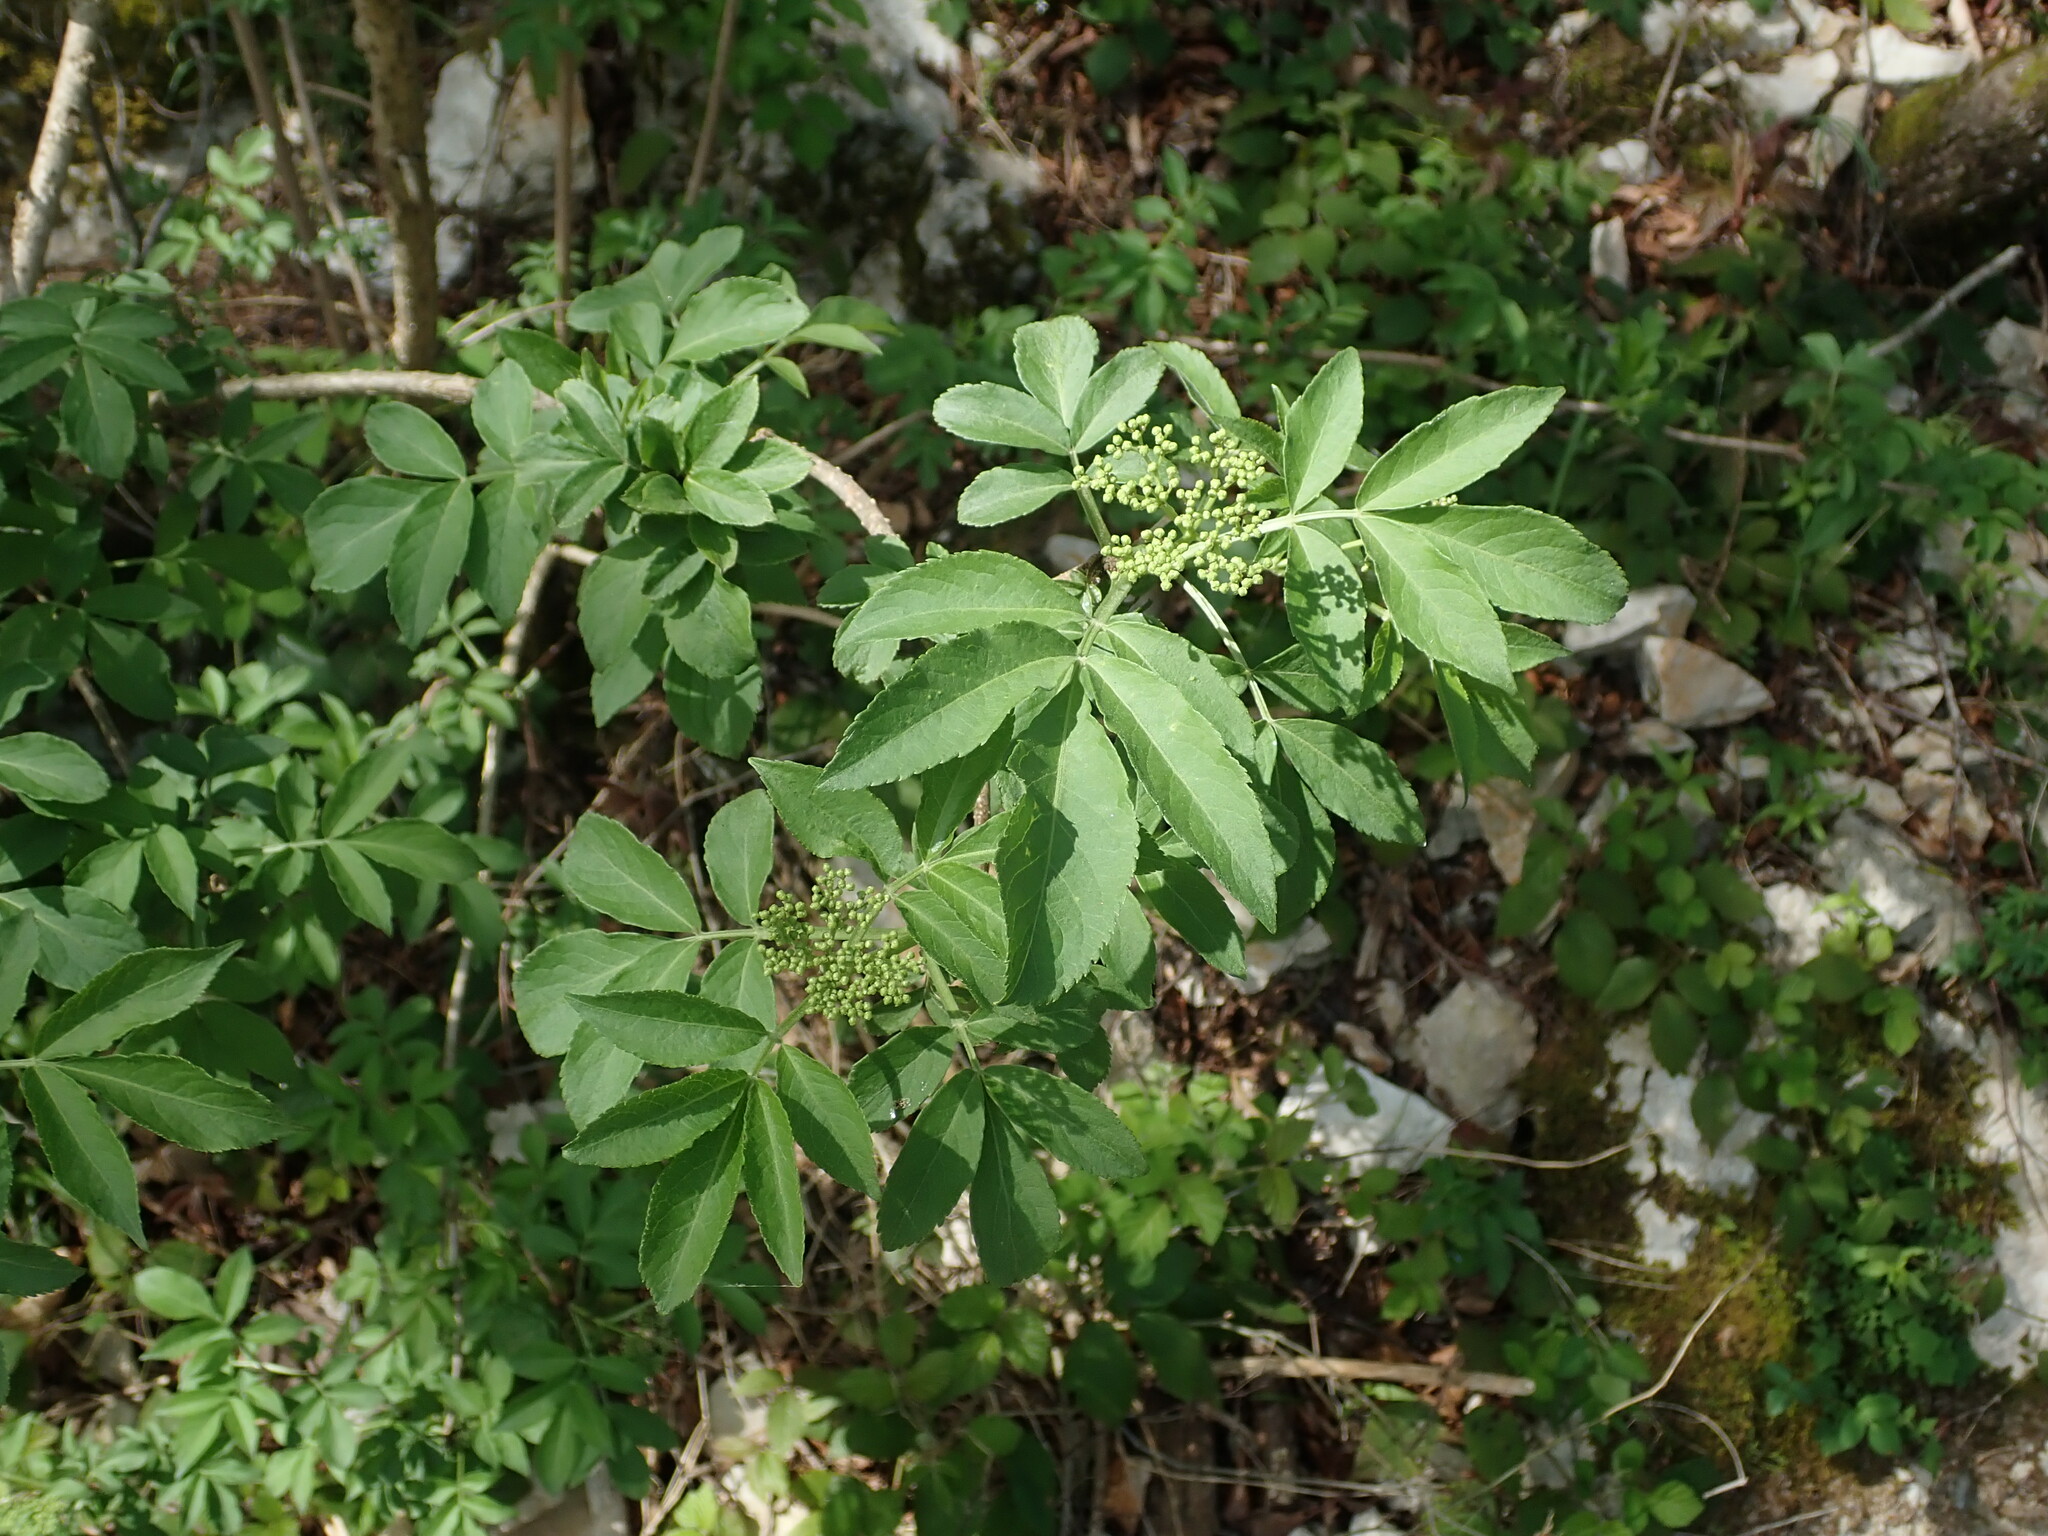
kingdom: Plantae
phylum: Tracheophyta
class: Magnoliopsida
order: Dipsacales
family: Viburnaceae
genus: Sambucus
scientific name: Sambucus nigra
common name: Elder
